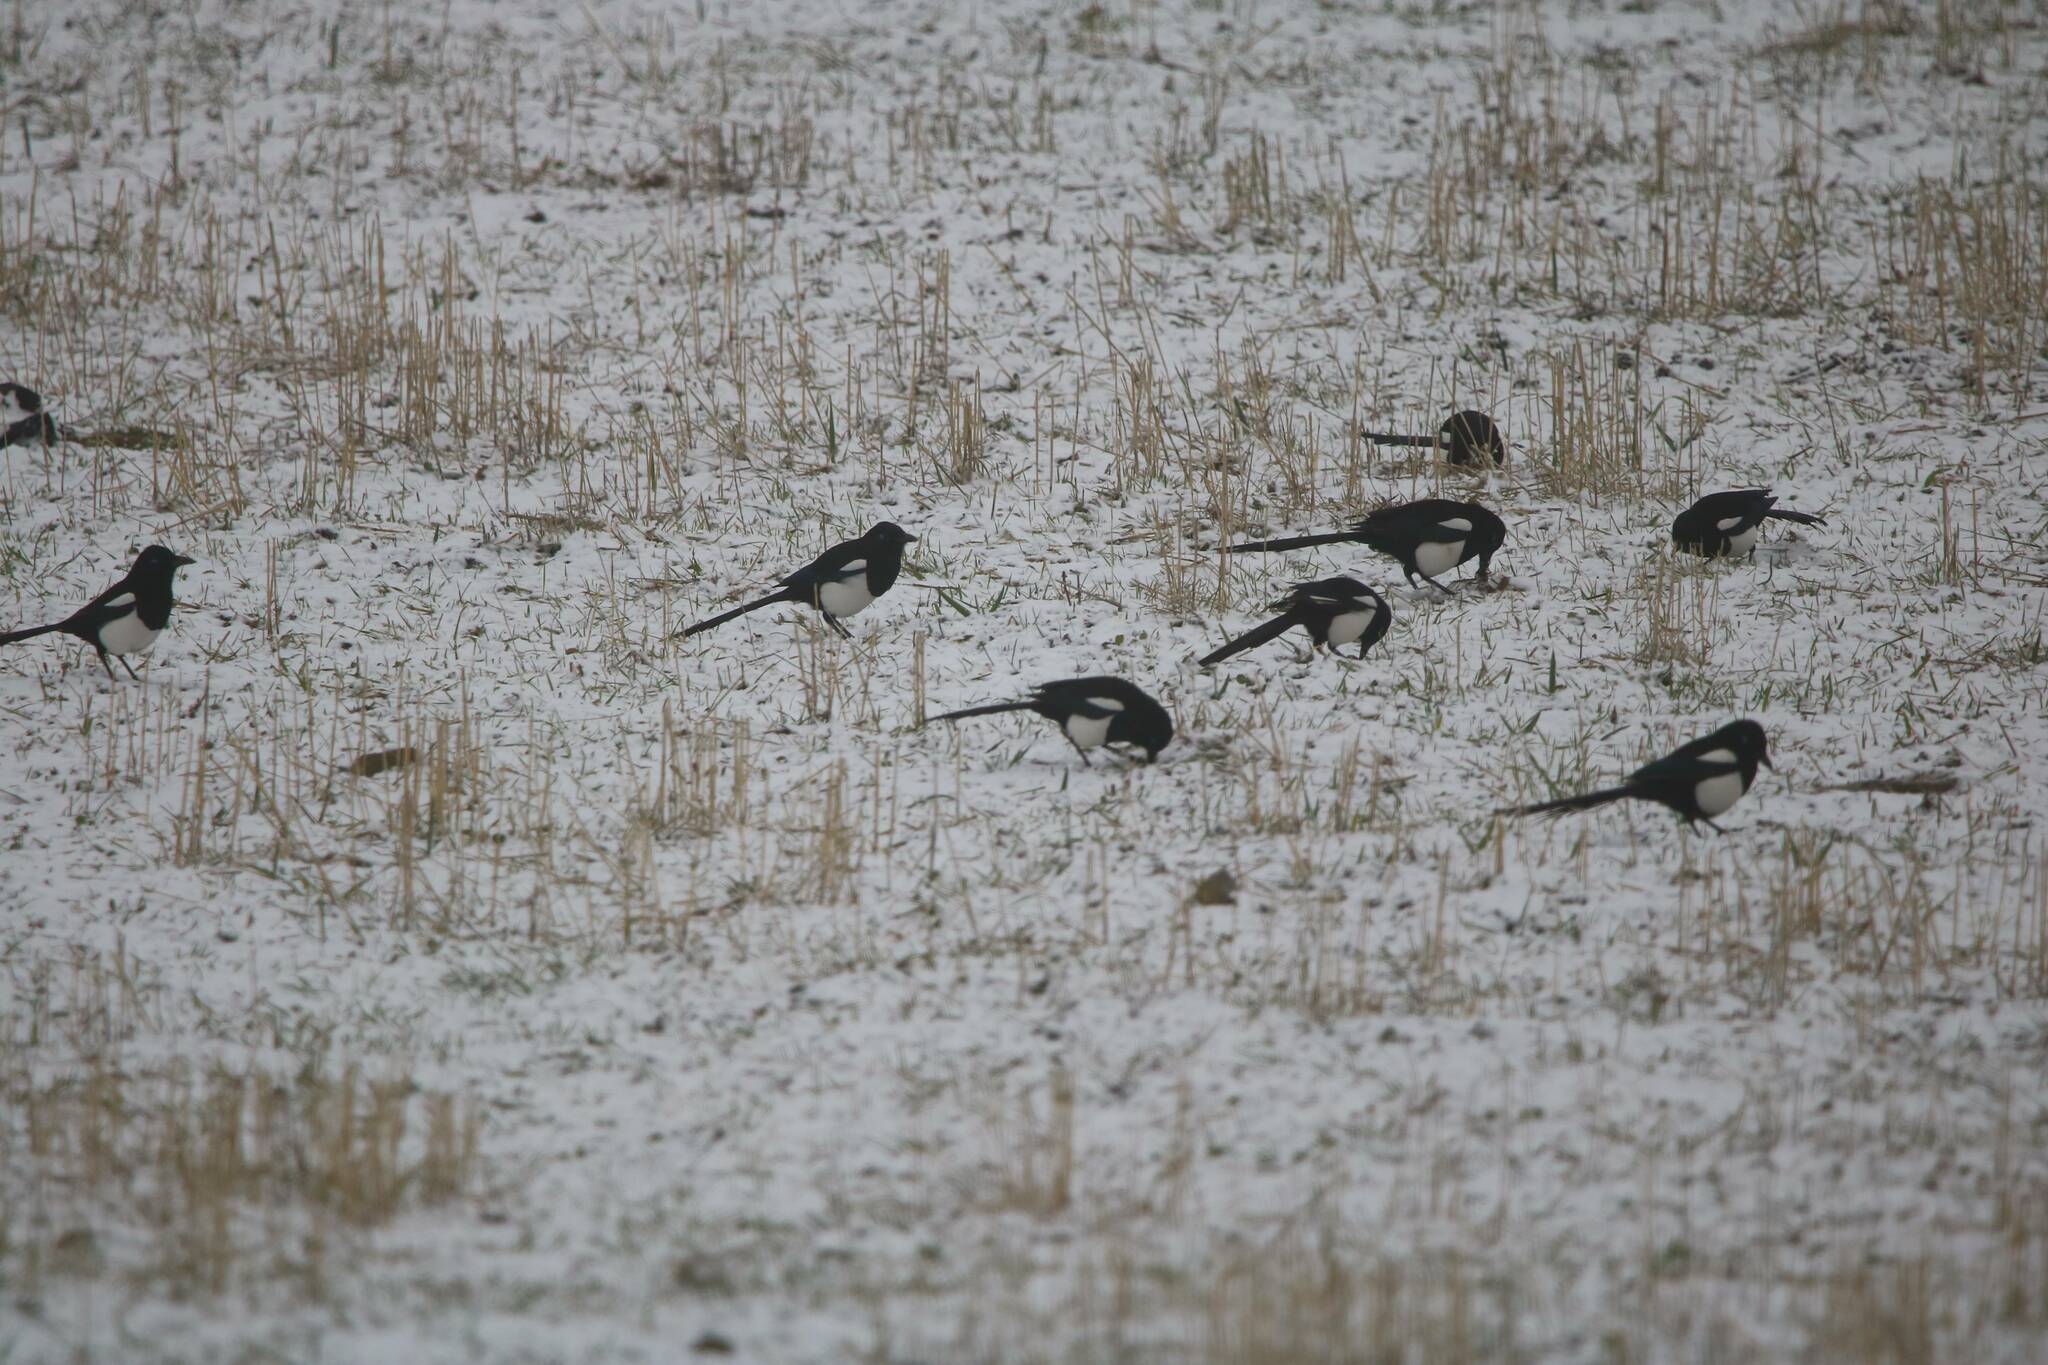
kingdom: Animalia
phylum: Chordata
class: Aves
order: Passeriformes
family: Corvidae
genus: Pica
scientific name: Pica mauritanica
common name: Maghreb magpie
